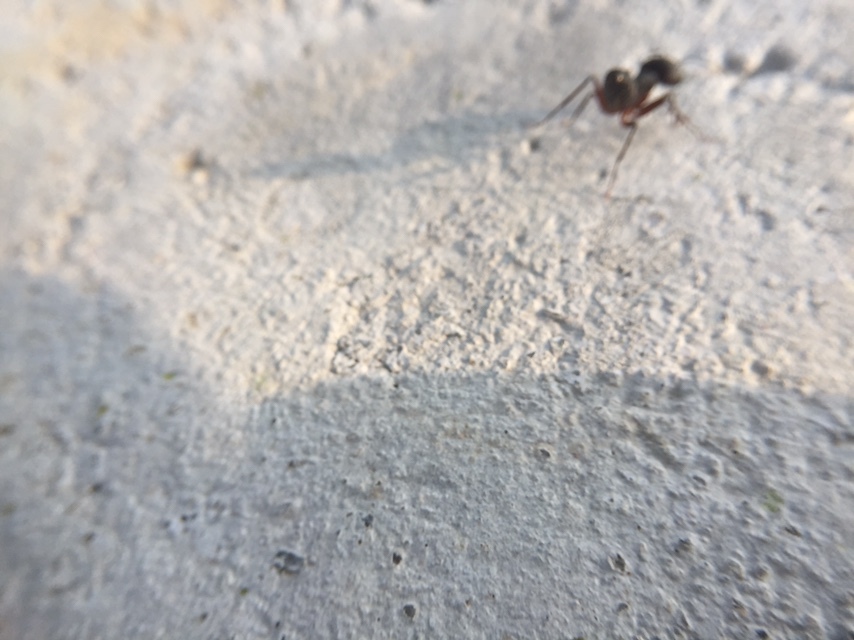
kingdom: Animalia
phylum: Arthropoda
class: Insecta
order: Hymenoptera
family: Formicidae
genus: Camponotus
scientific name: Camponotus compressus
